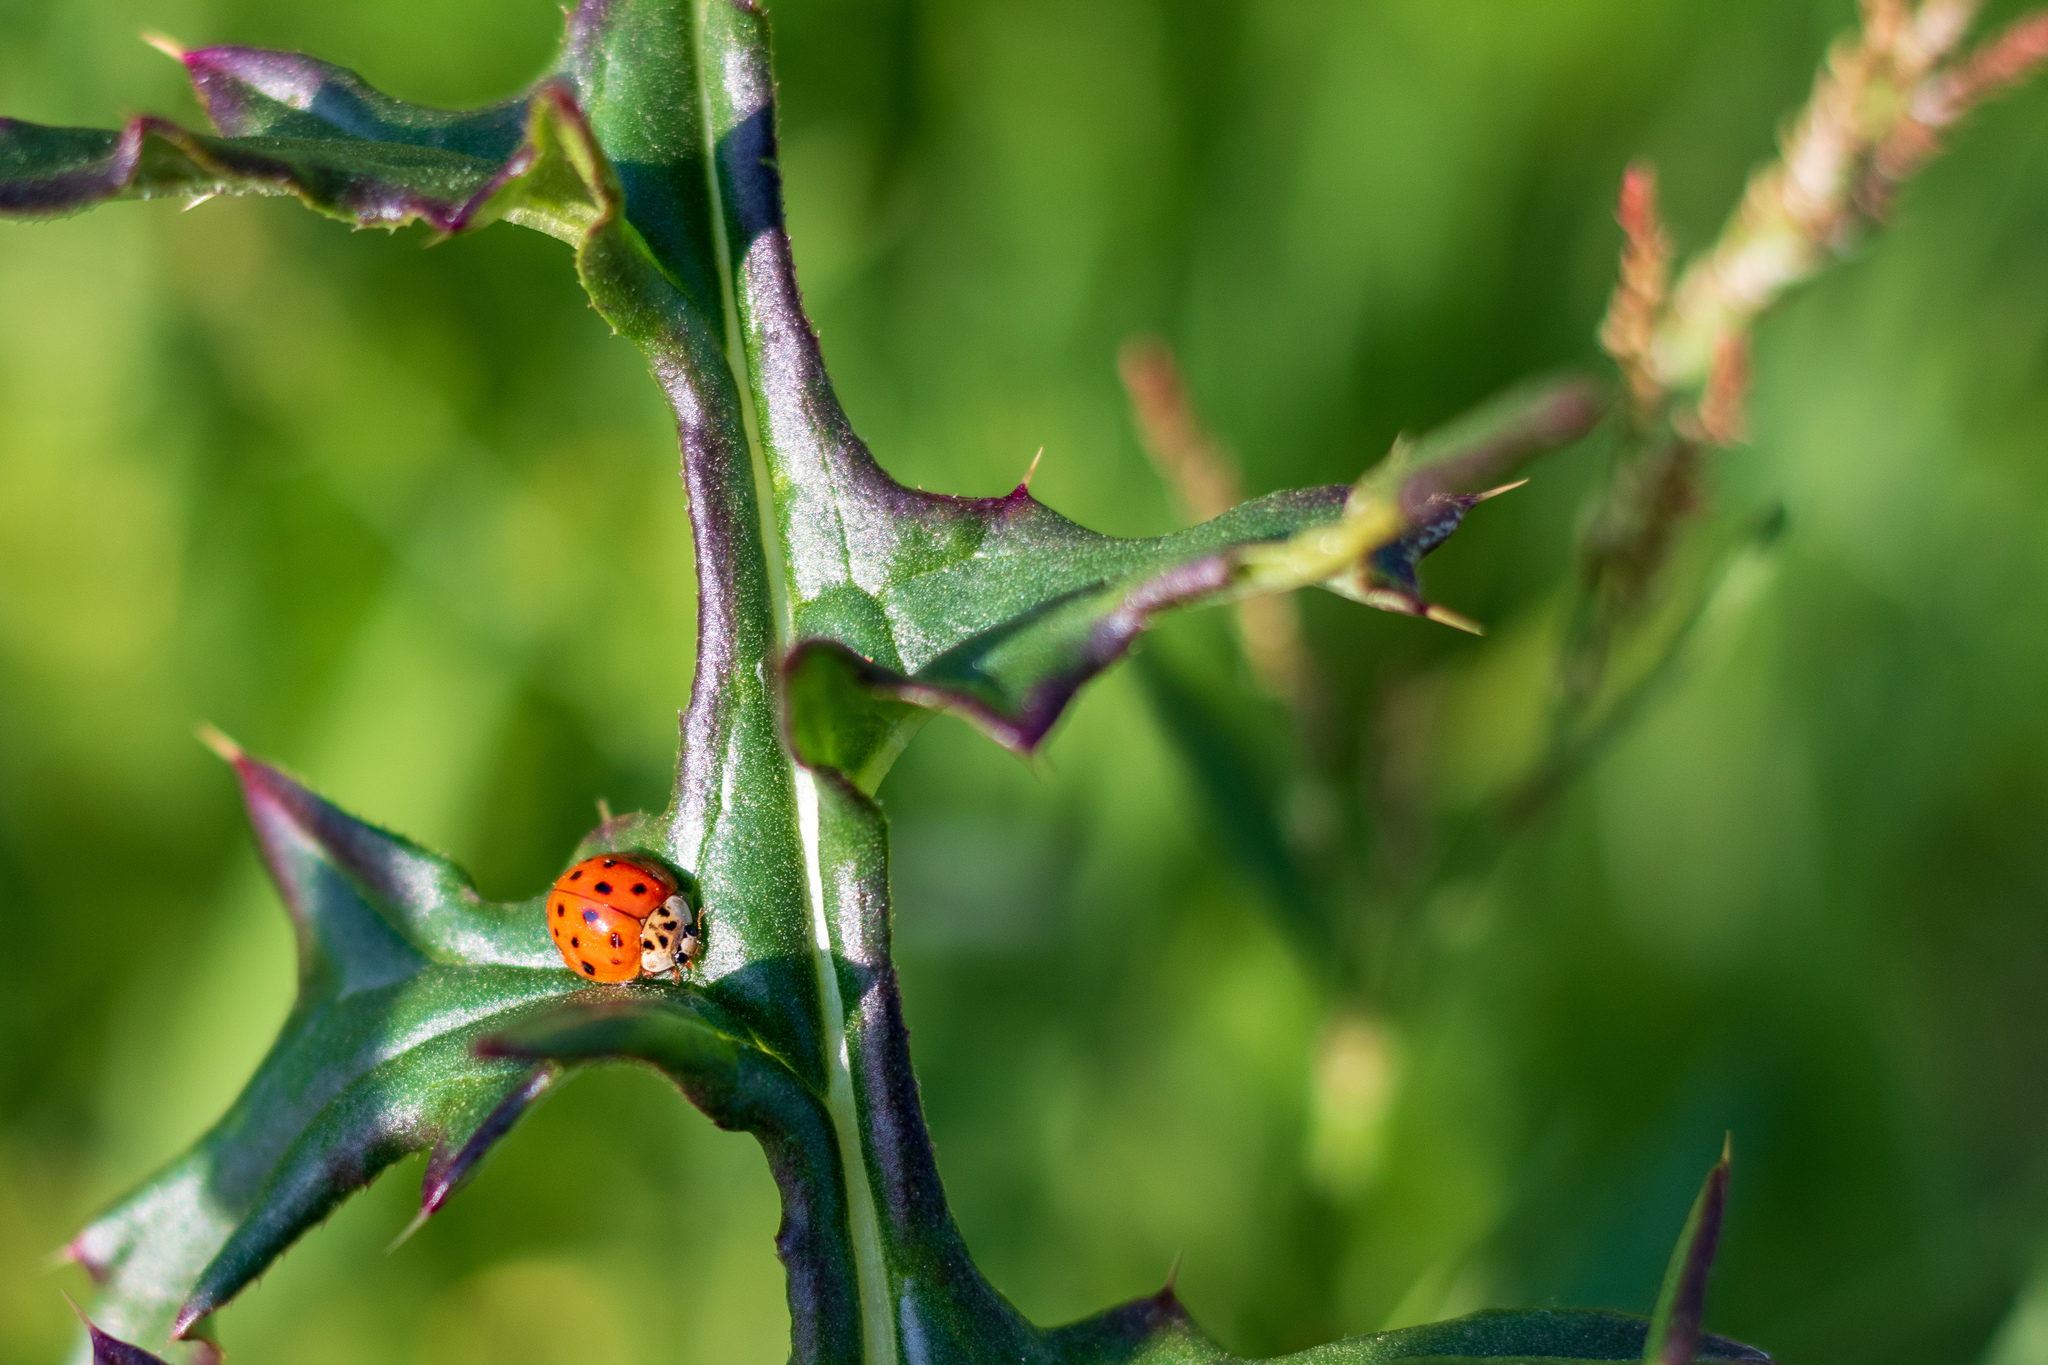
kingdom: Animalia
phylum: Arthropoda
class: Insecta
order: Coleoptera
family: Coccinellidae
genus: Harmonia
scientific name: Harmonia axyridis
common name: Harlequin ladybird
